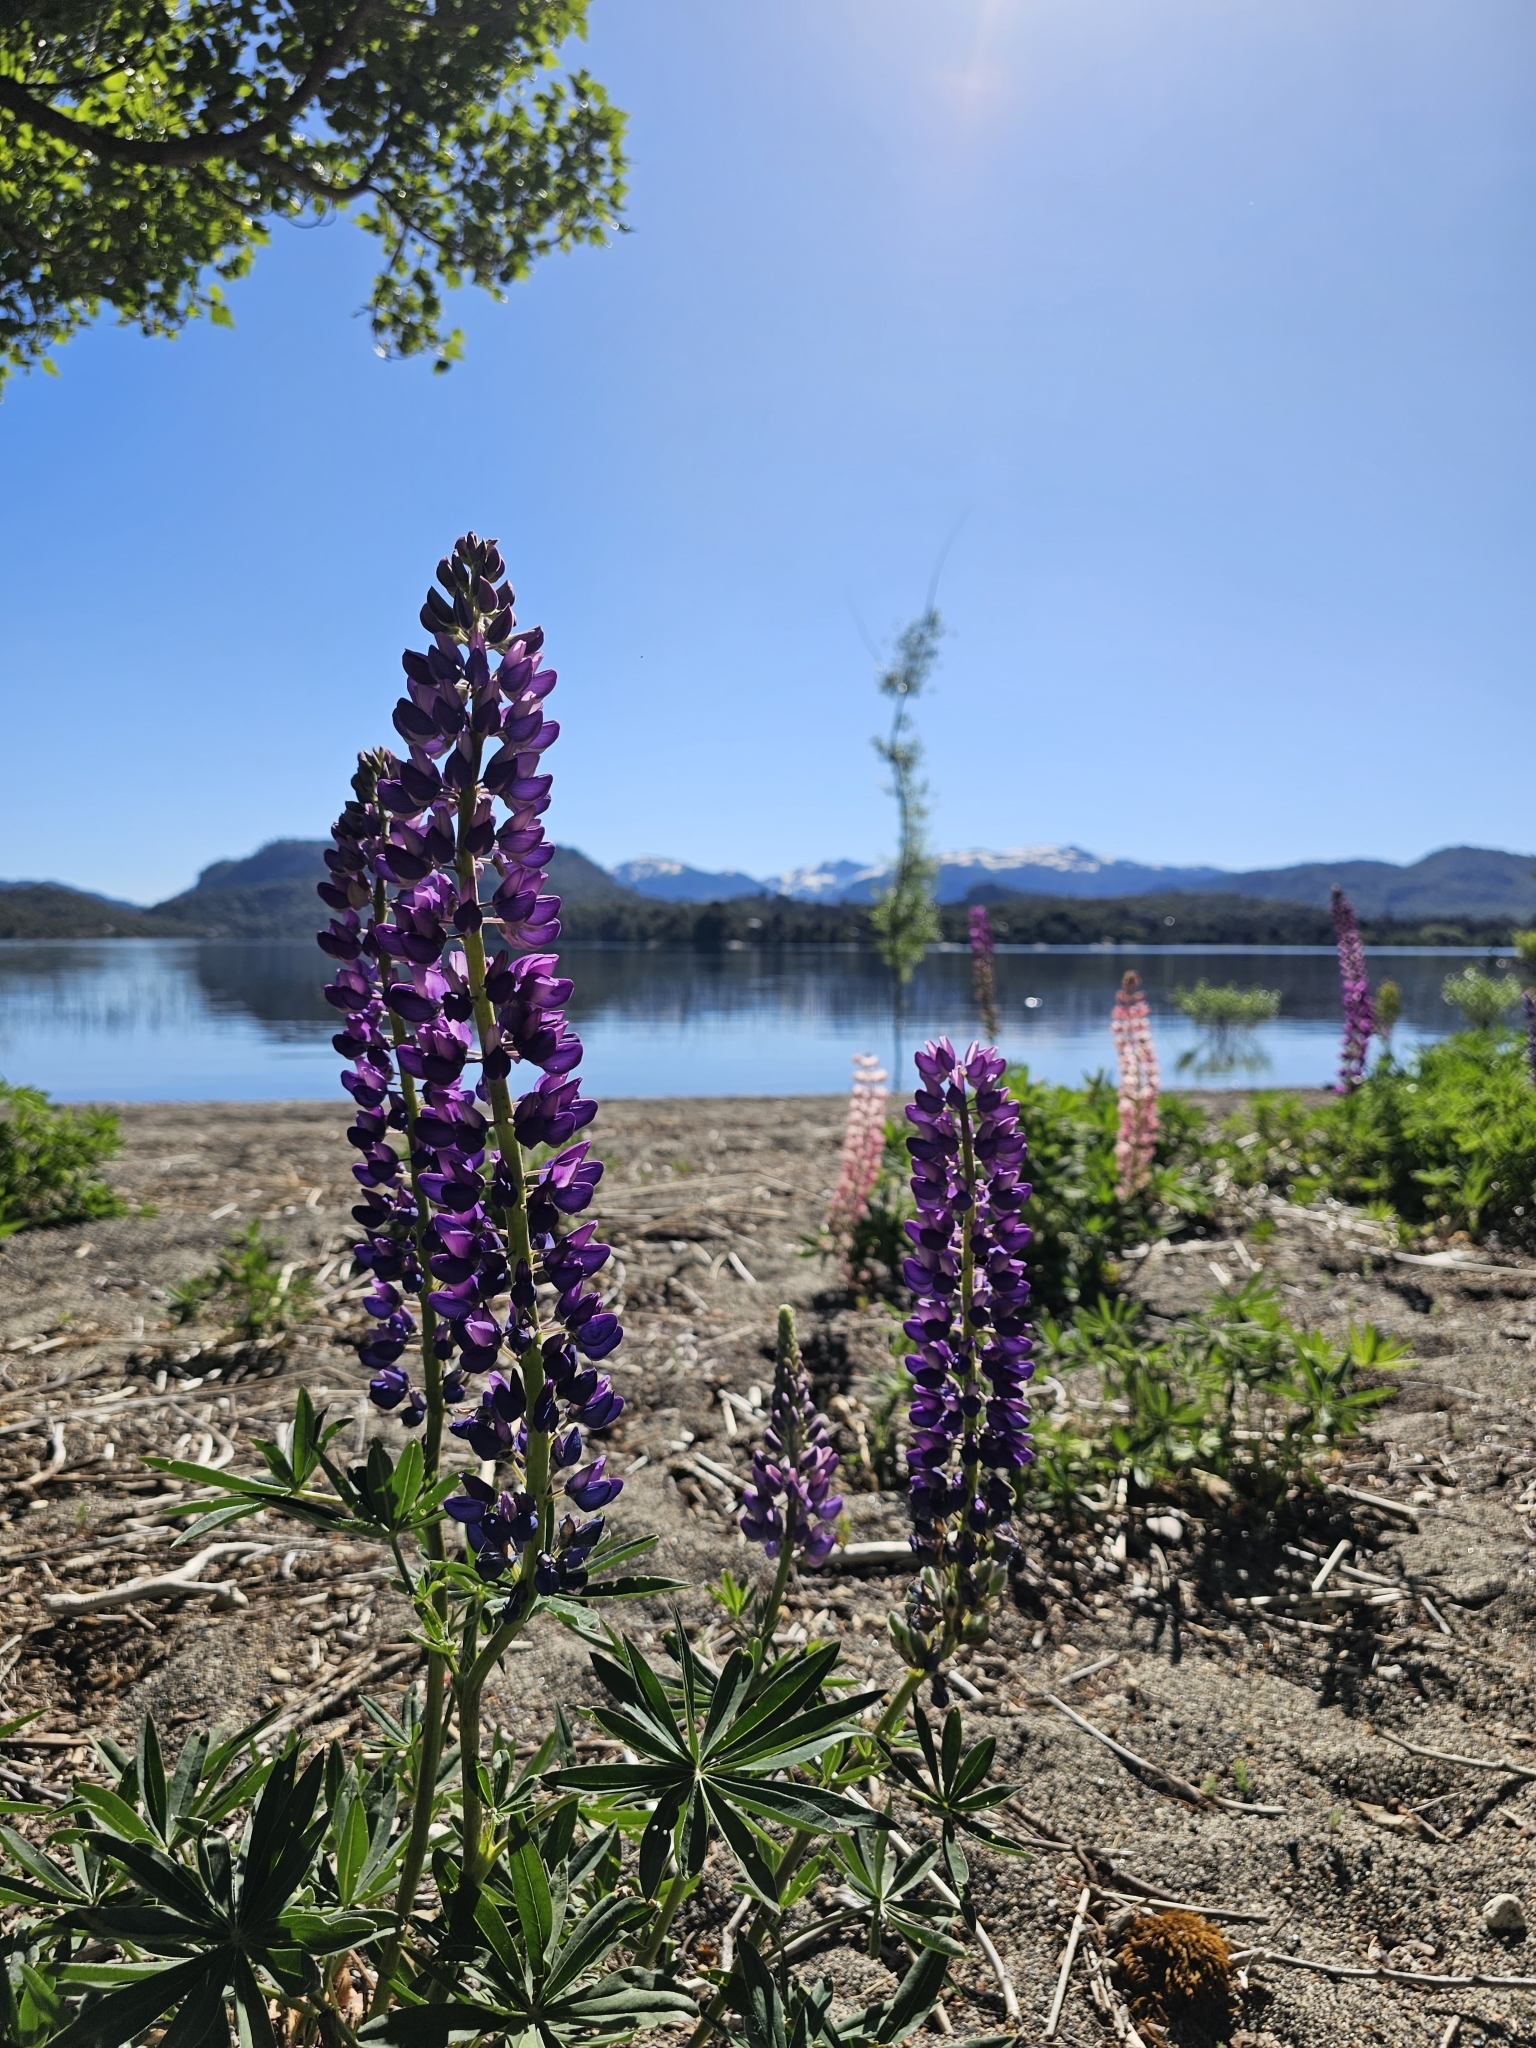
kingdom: Plantae
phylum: Tracheophyta
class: Magnoliopsida
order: Fabales
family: Fabaceae
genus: Lupinus
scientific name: Lupinus polyphyllus
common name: Garden lupin
